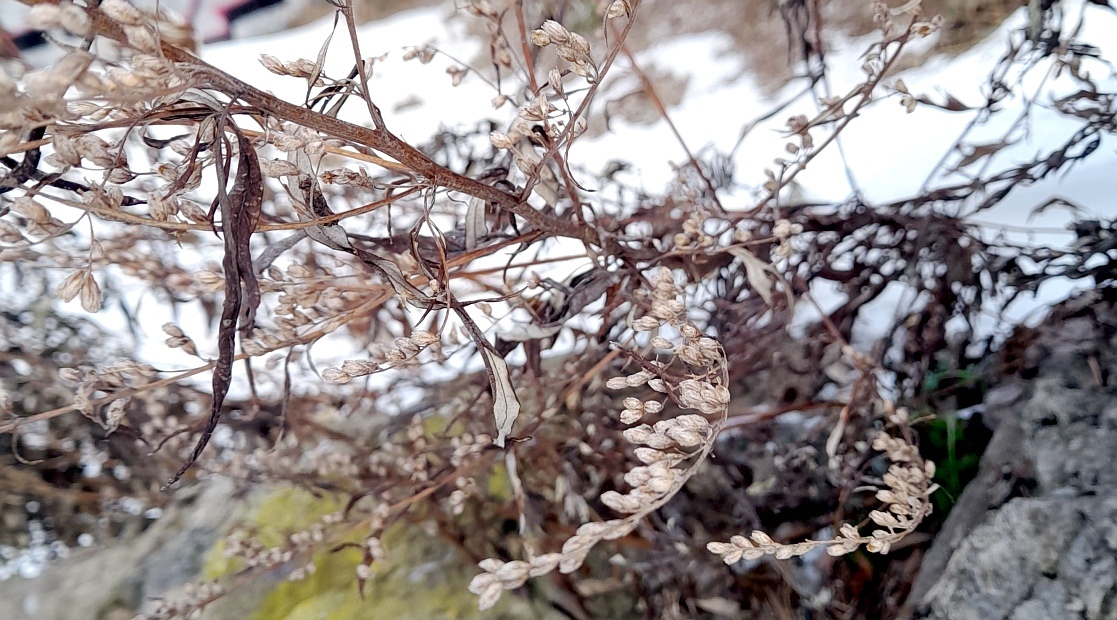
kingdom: Plantae
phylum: Tracheophyta
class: Magnoliopsida
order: Asterales
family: Asteraceae
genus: Artemisia
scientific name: Artemisia vulgaris
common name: Mugwort
